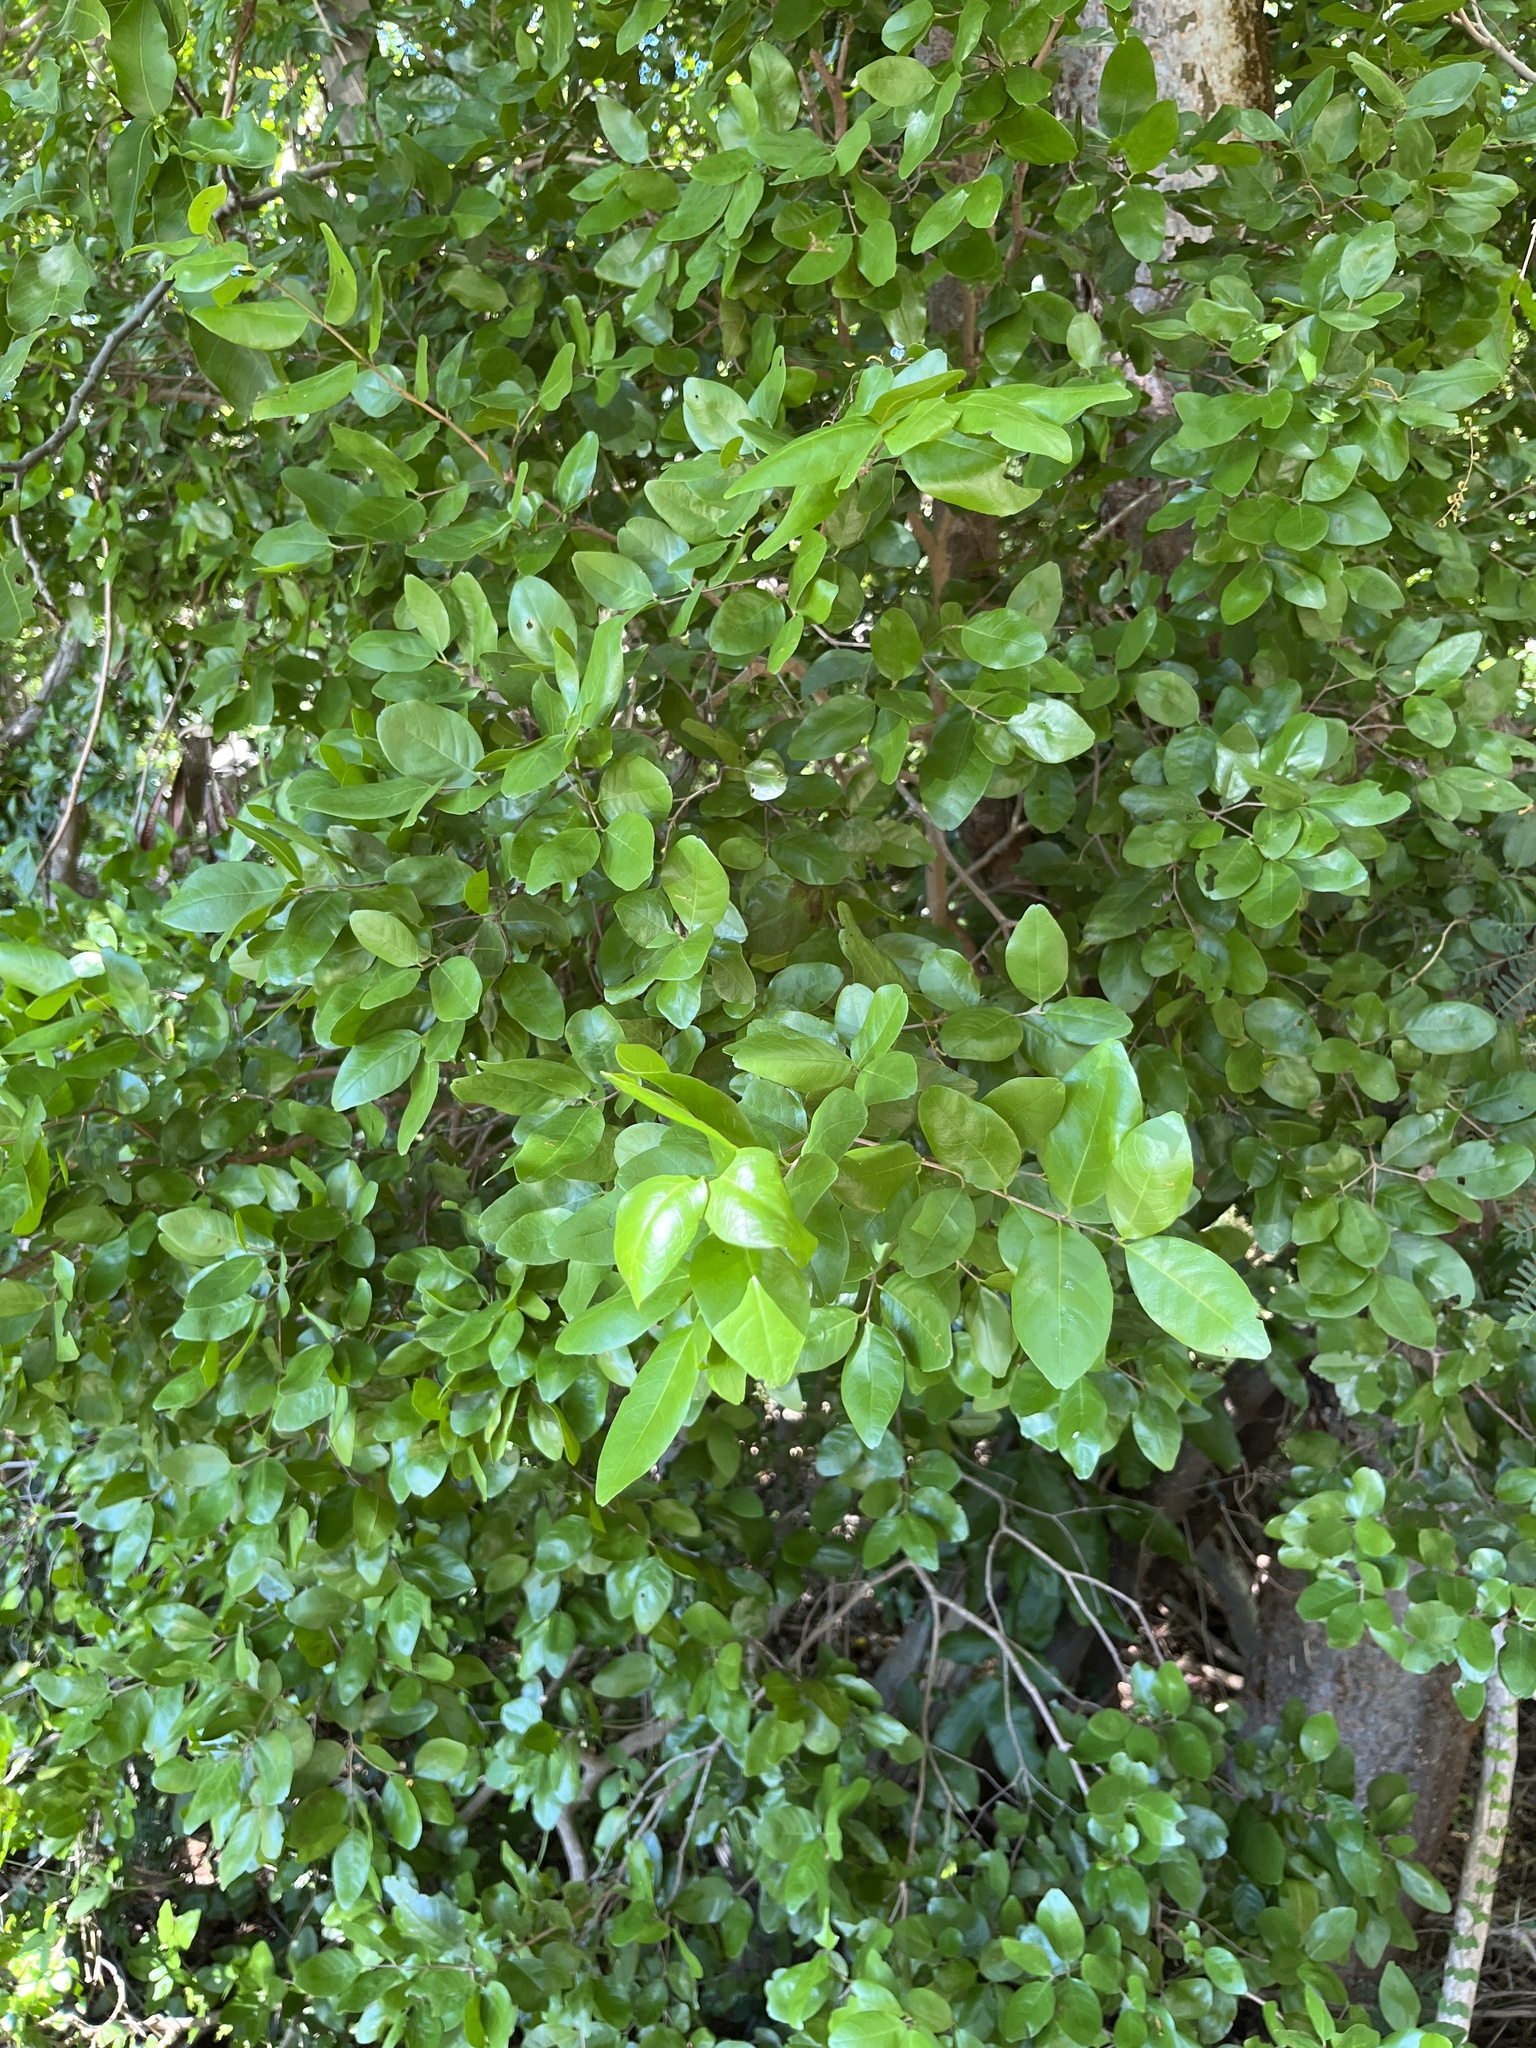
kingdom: Plantae
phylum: Tracheophyta
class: Magnoliopsida
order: Rosales
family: Rhamnaceae
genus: Krugiodendron
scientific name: Krugiodendron ferreum
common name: Iron wood
